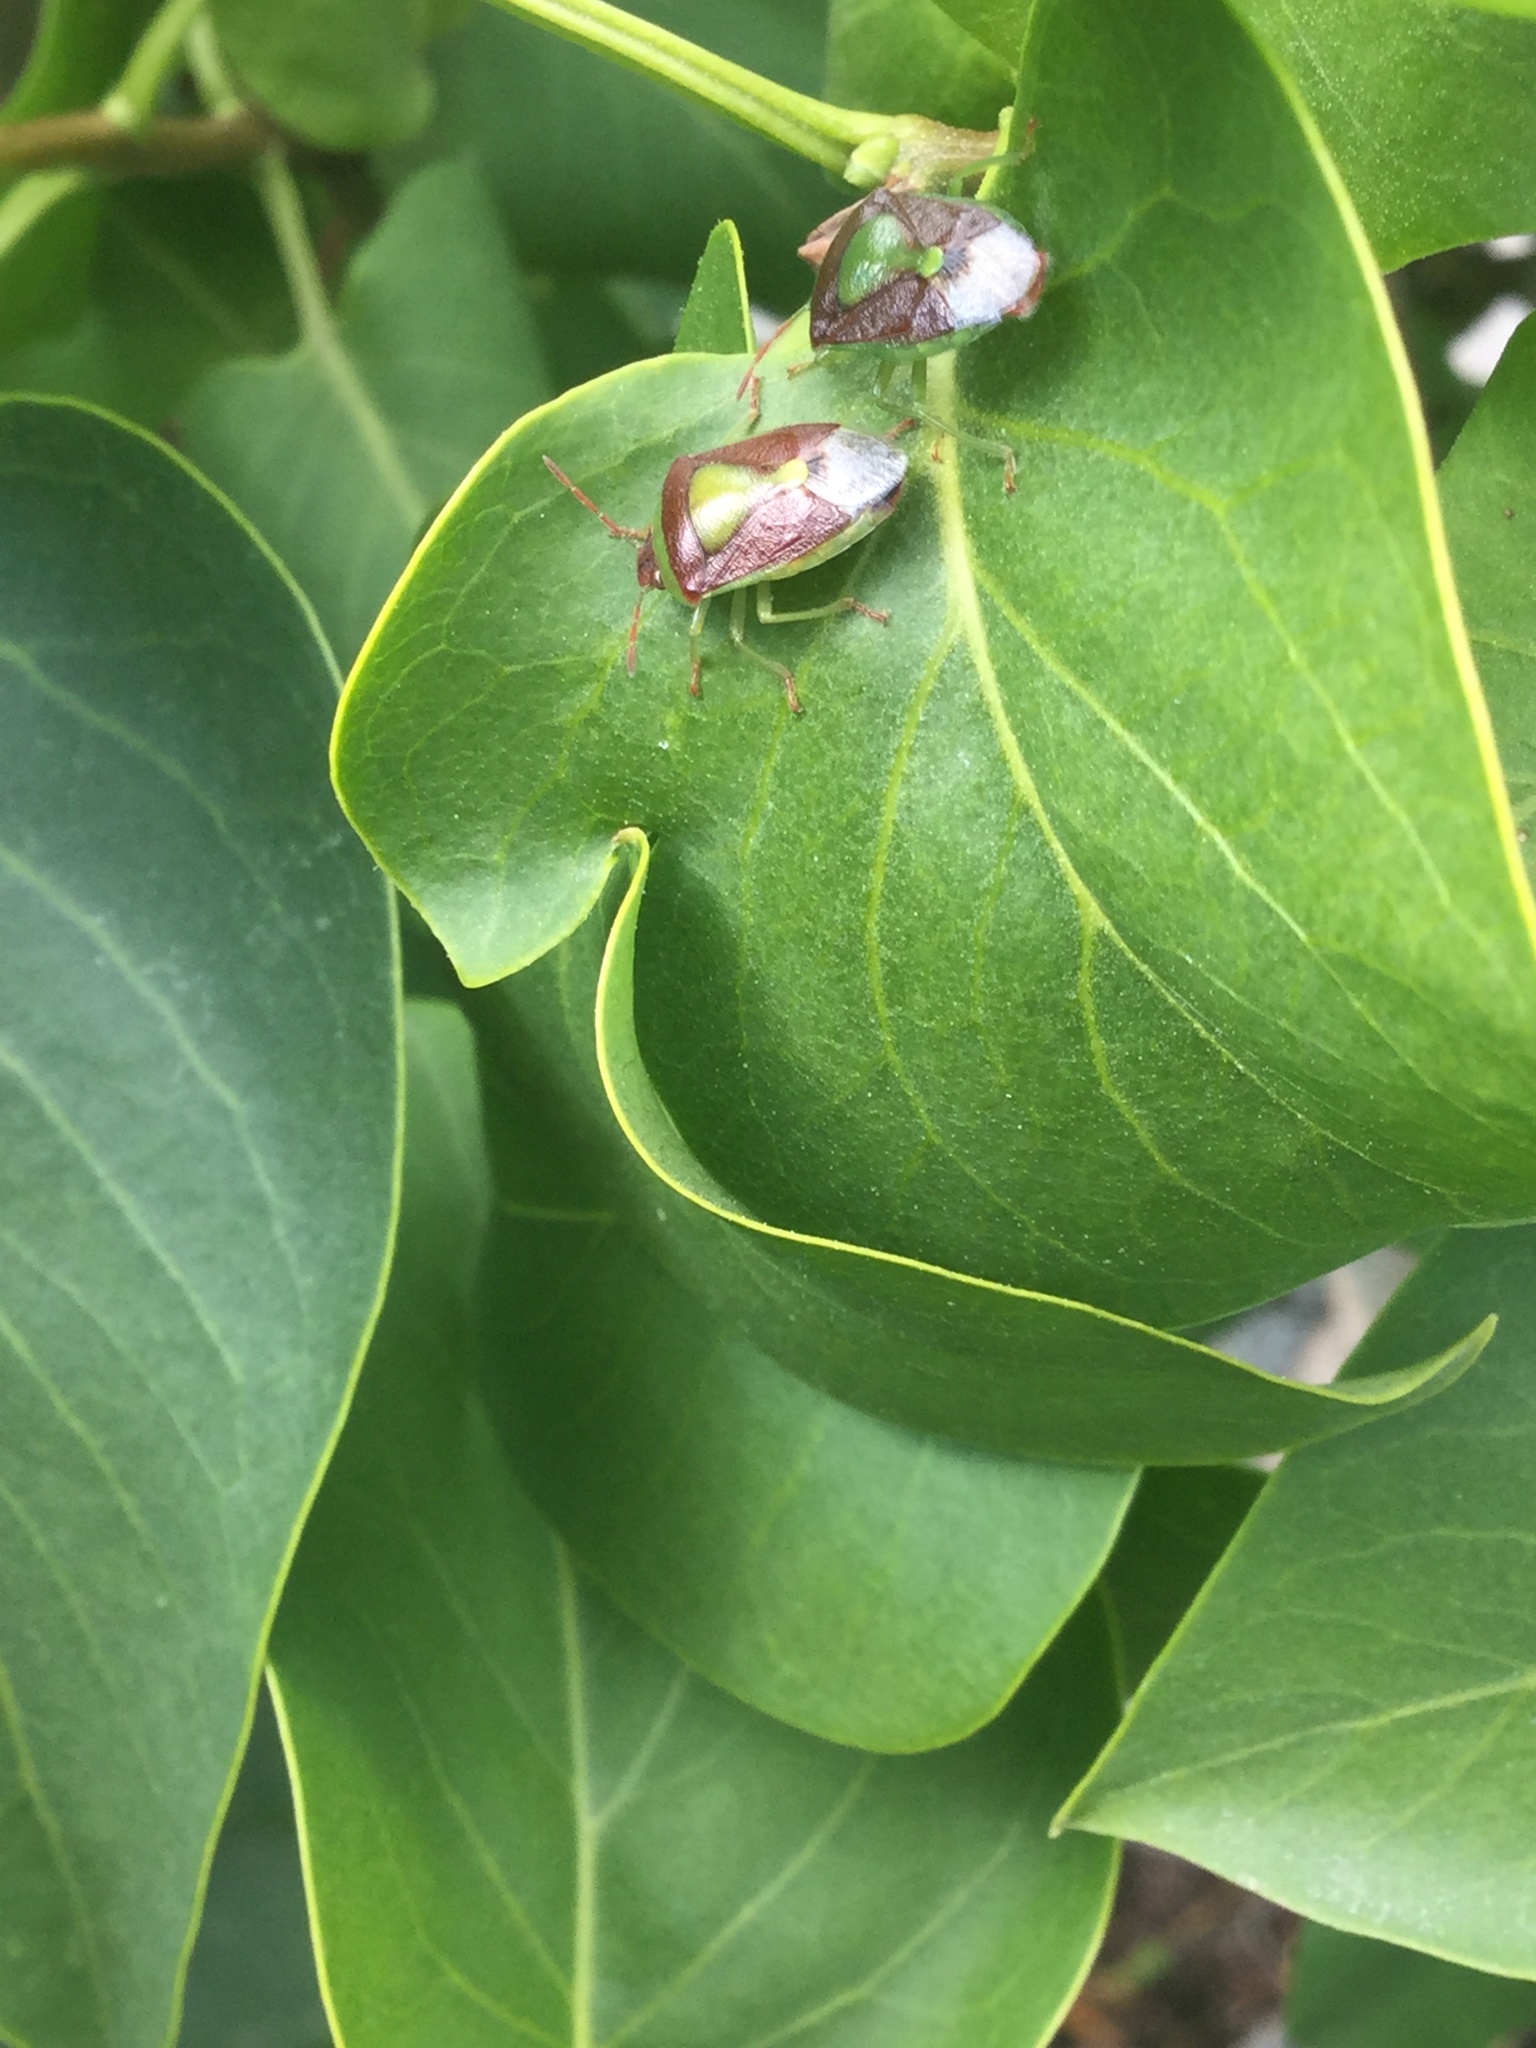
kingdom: Animalia
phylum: Arthropoda
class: Insecta
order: Hemiptera
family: Pentatomidae
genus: Banasa
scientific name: Banasa dimidiata
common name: Green burgundy stink bug
